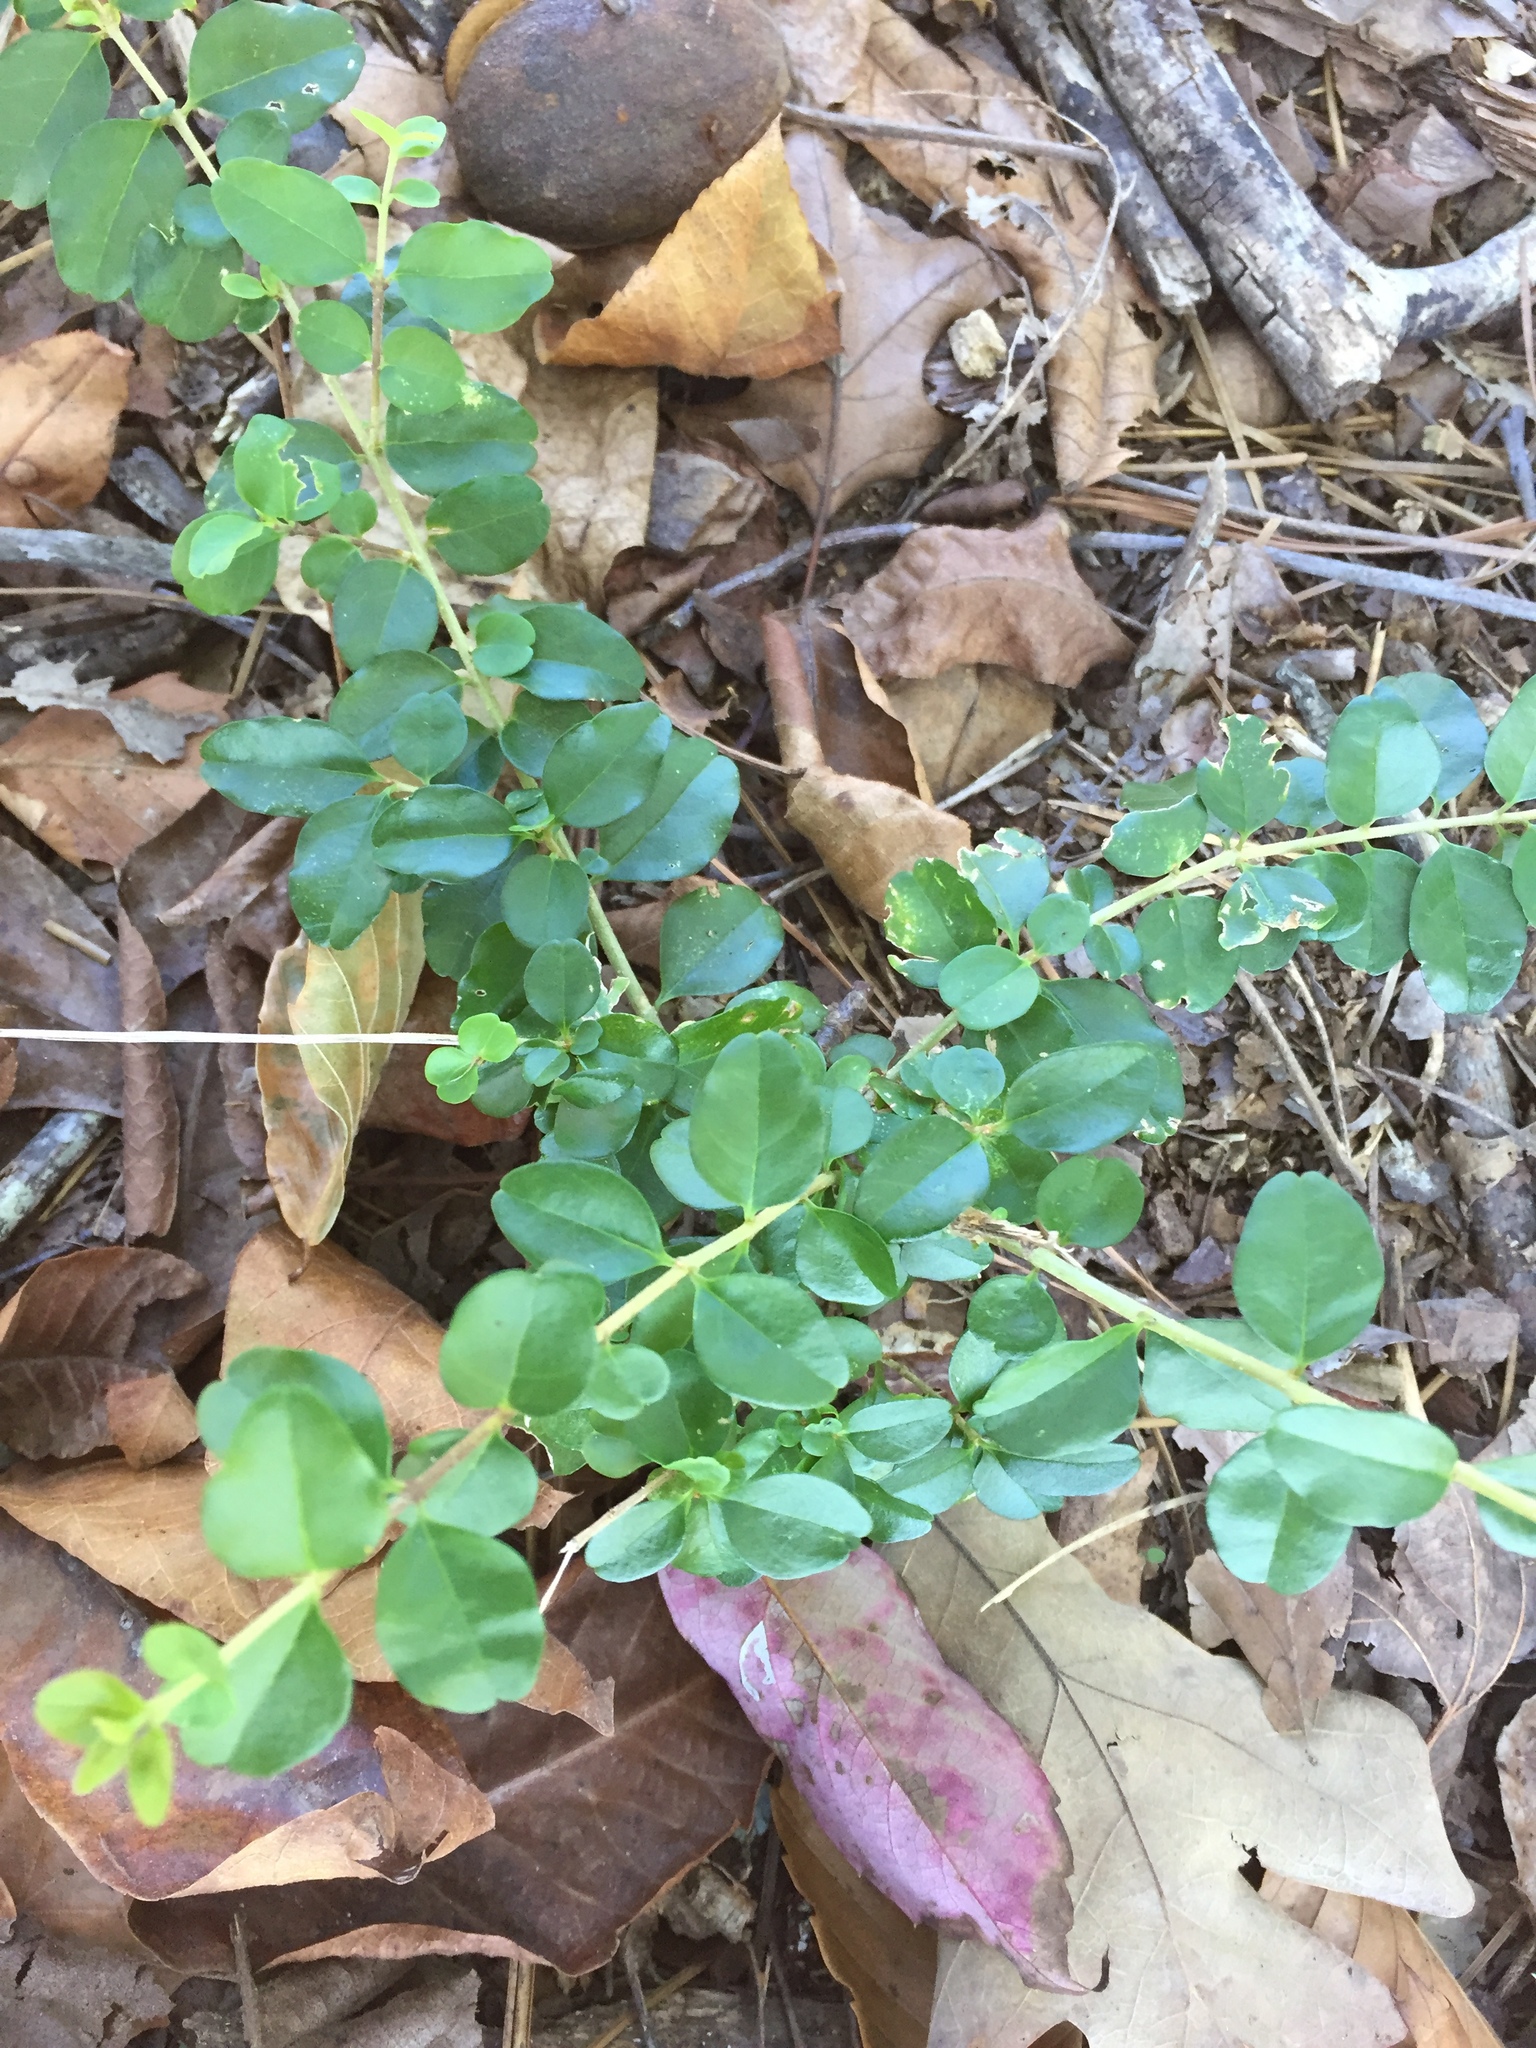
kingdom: Plantae
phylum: Tracheophyta
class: Magnoliopsida
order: Lamiales
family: Oleaceae
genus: Ligustrum
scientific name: Ligustrum sinense
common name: Chinese privet
